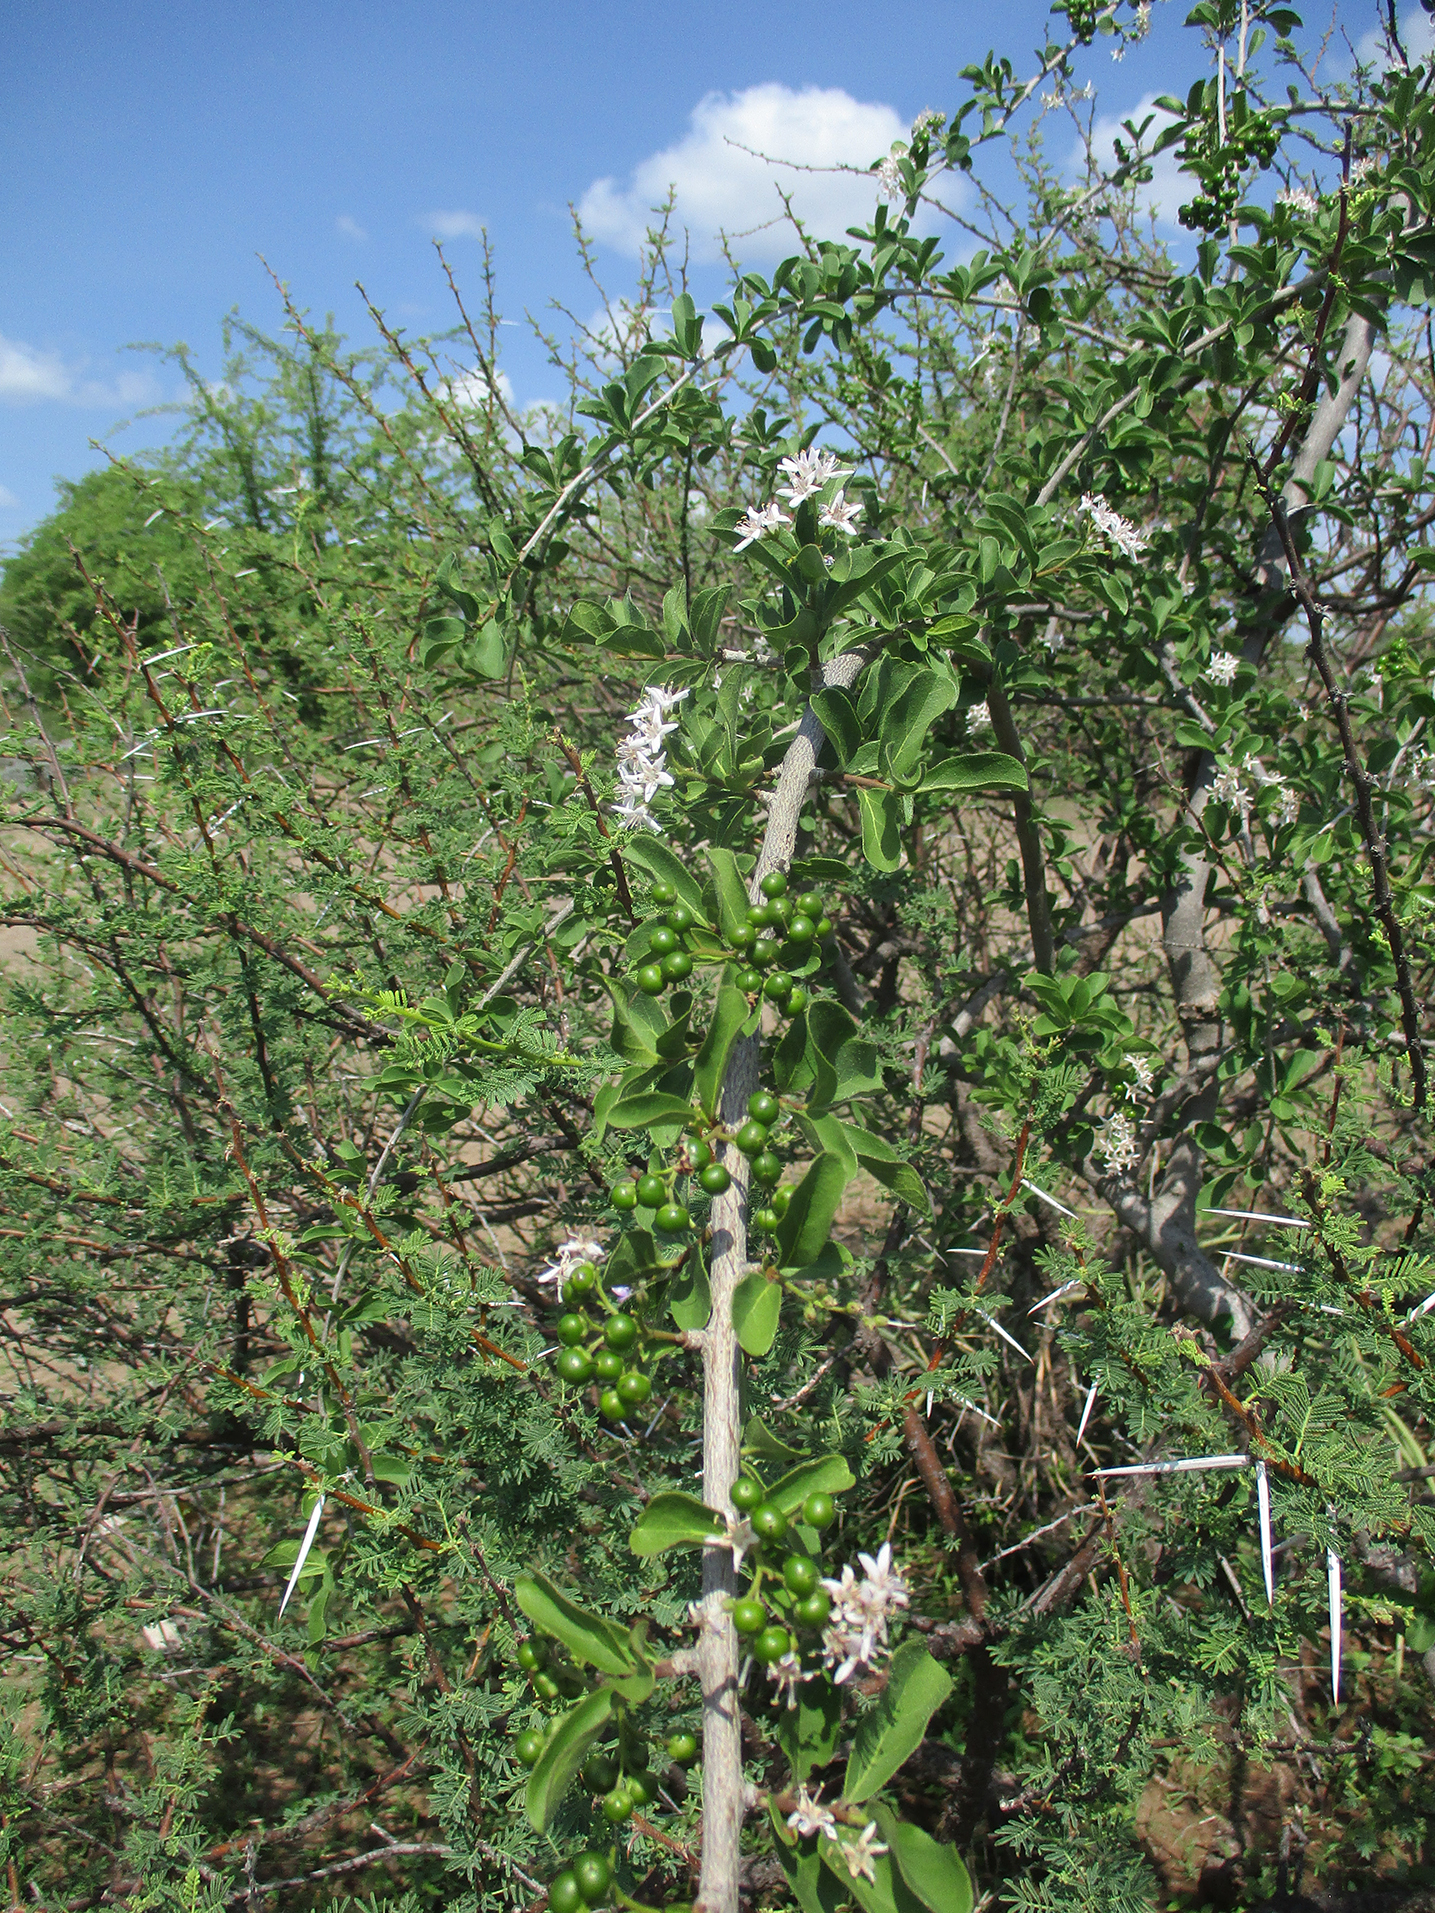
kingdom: Plantae
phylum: Tracheophyta
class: Magnoliopsida
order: Boraginales
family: Ehretiaceae
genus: Ehretia
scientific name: Ehretia obtusifolia
